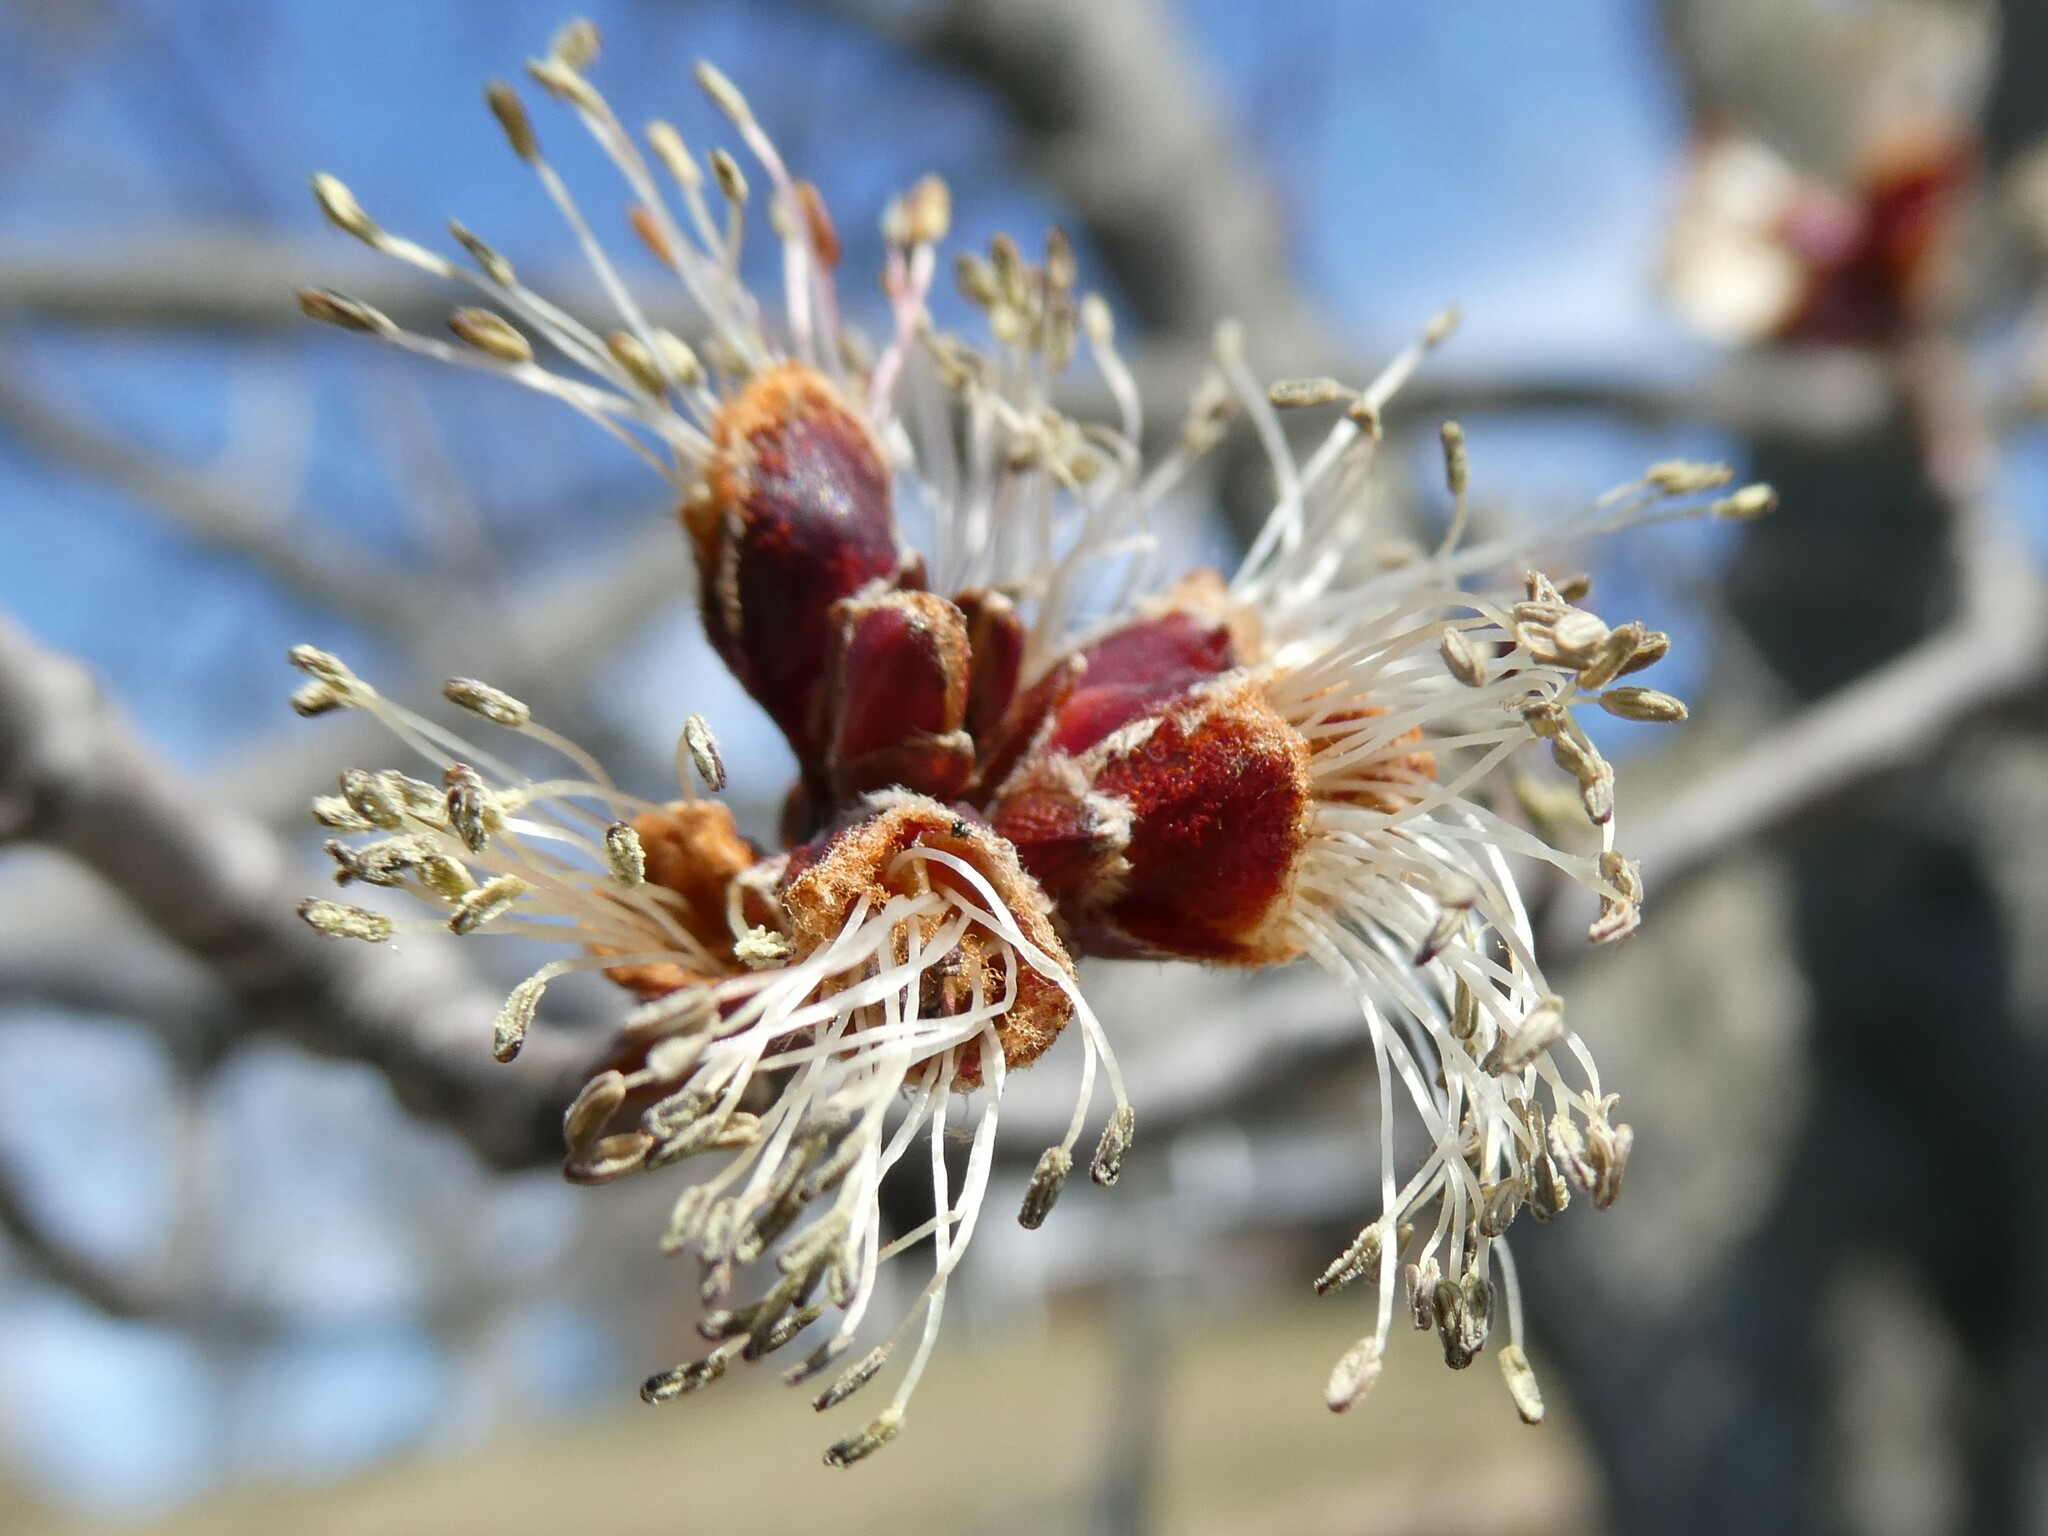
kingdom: Plantae
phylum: Tracheophyta
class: Magnoliopsida
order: Sapindales
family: Sapindaceae
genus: Acer
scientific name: Acer saccharinum
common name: Silver maple
